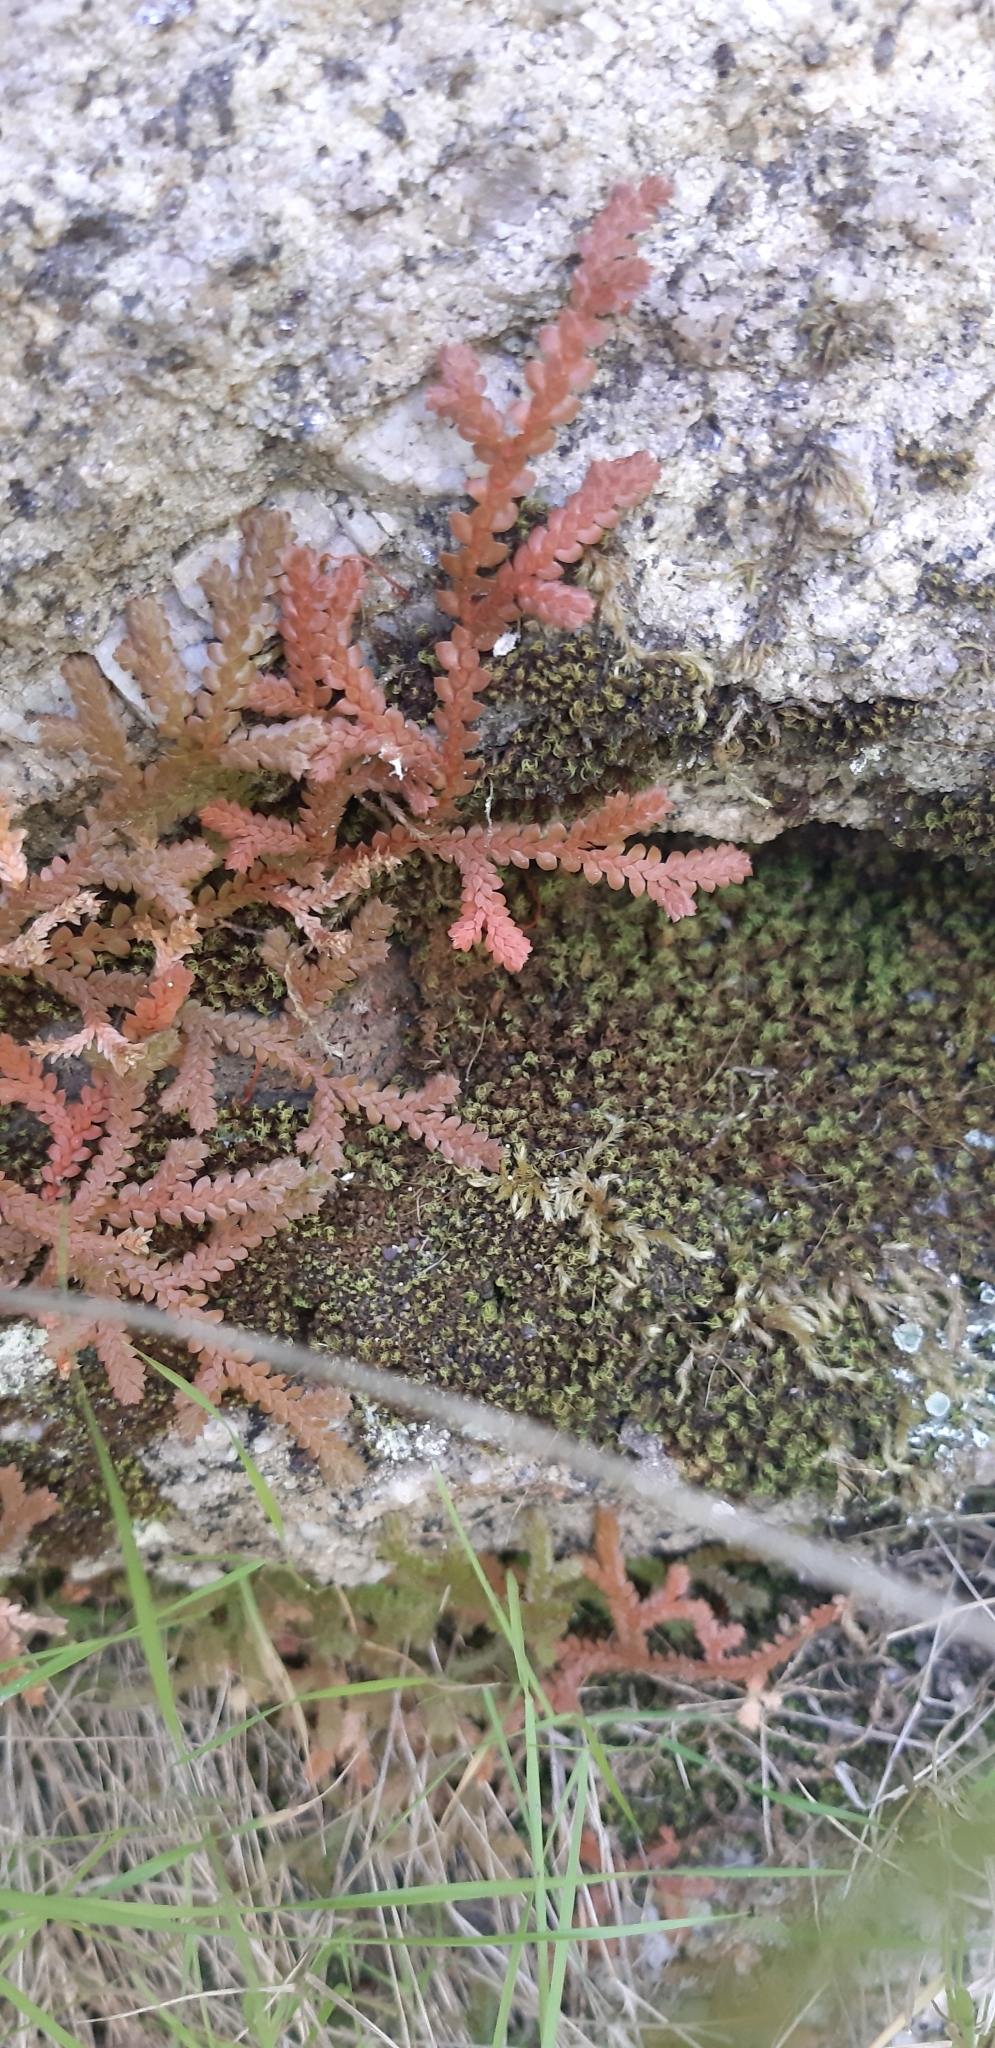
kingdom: Plantae
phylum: Tracheophyta
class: Lycopodiopsida
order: Selaginellales
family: Selaginellaceae
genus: Selaginella
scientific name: Selaginella denticulata
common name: Toothed-leaved clubmoss
